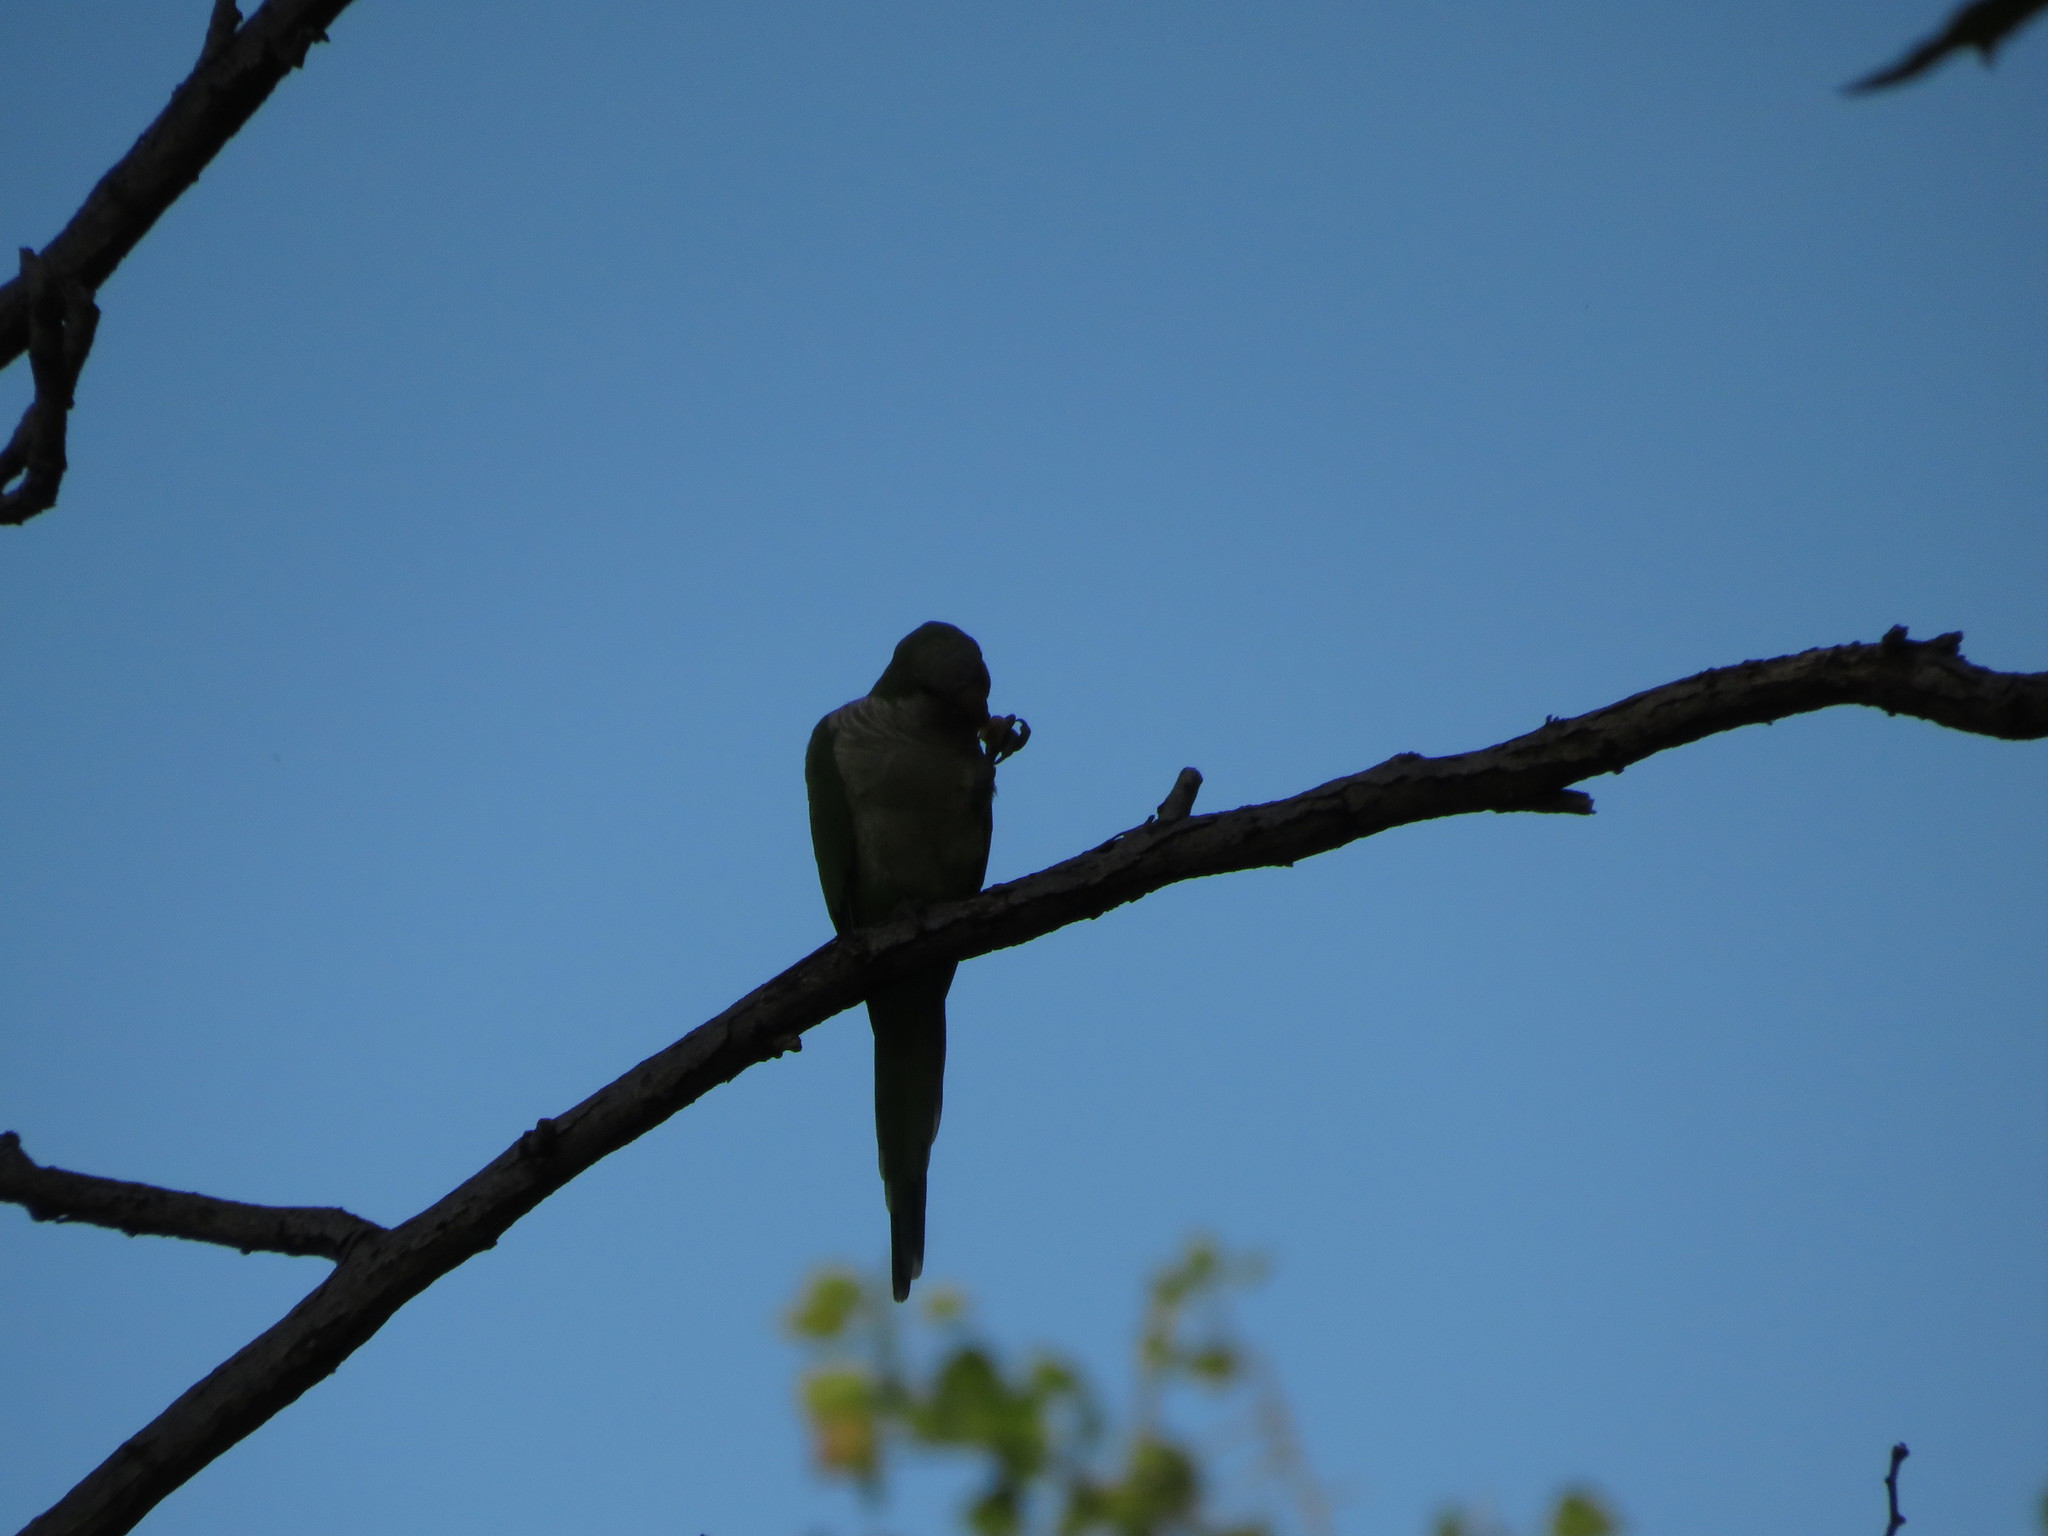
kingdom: Animalia
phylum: Chordata
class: Aves
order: Psittaciformes
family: Psittacidae
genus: Myiopsitta
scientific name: Myiopsitta monachus
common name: Monk parakeet
